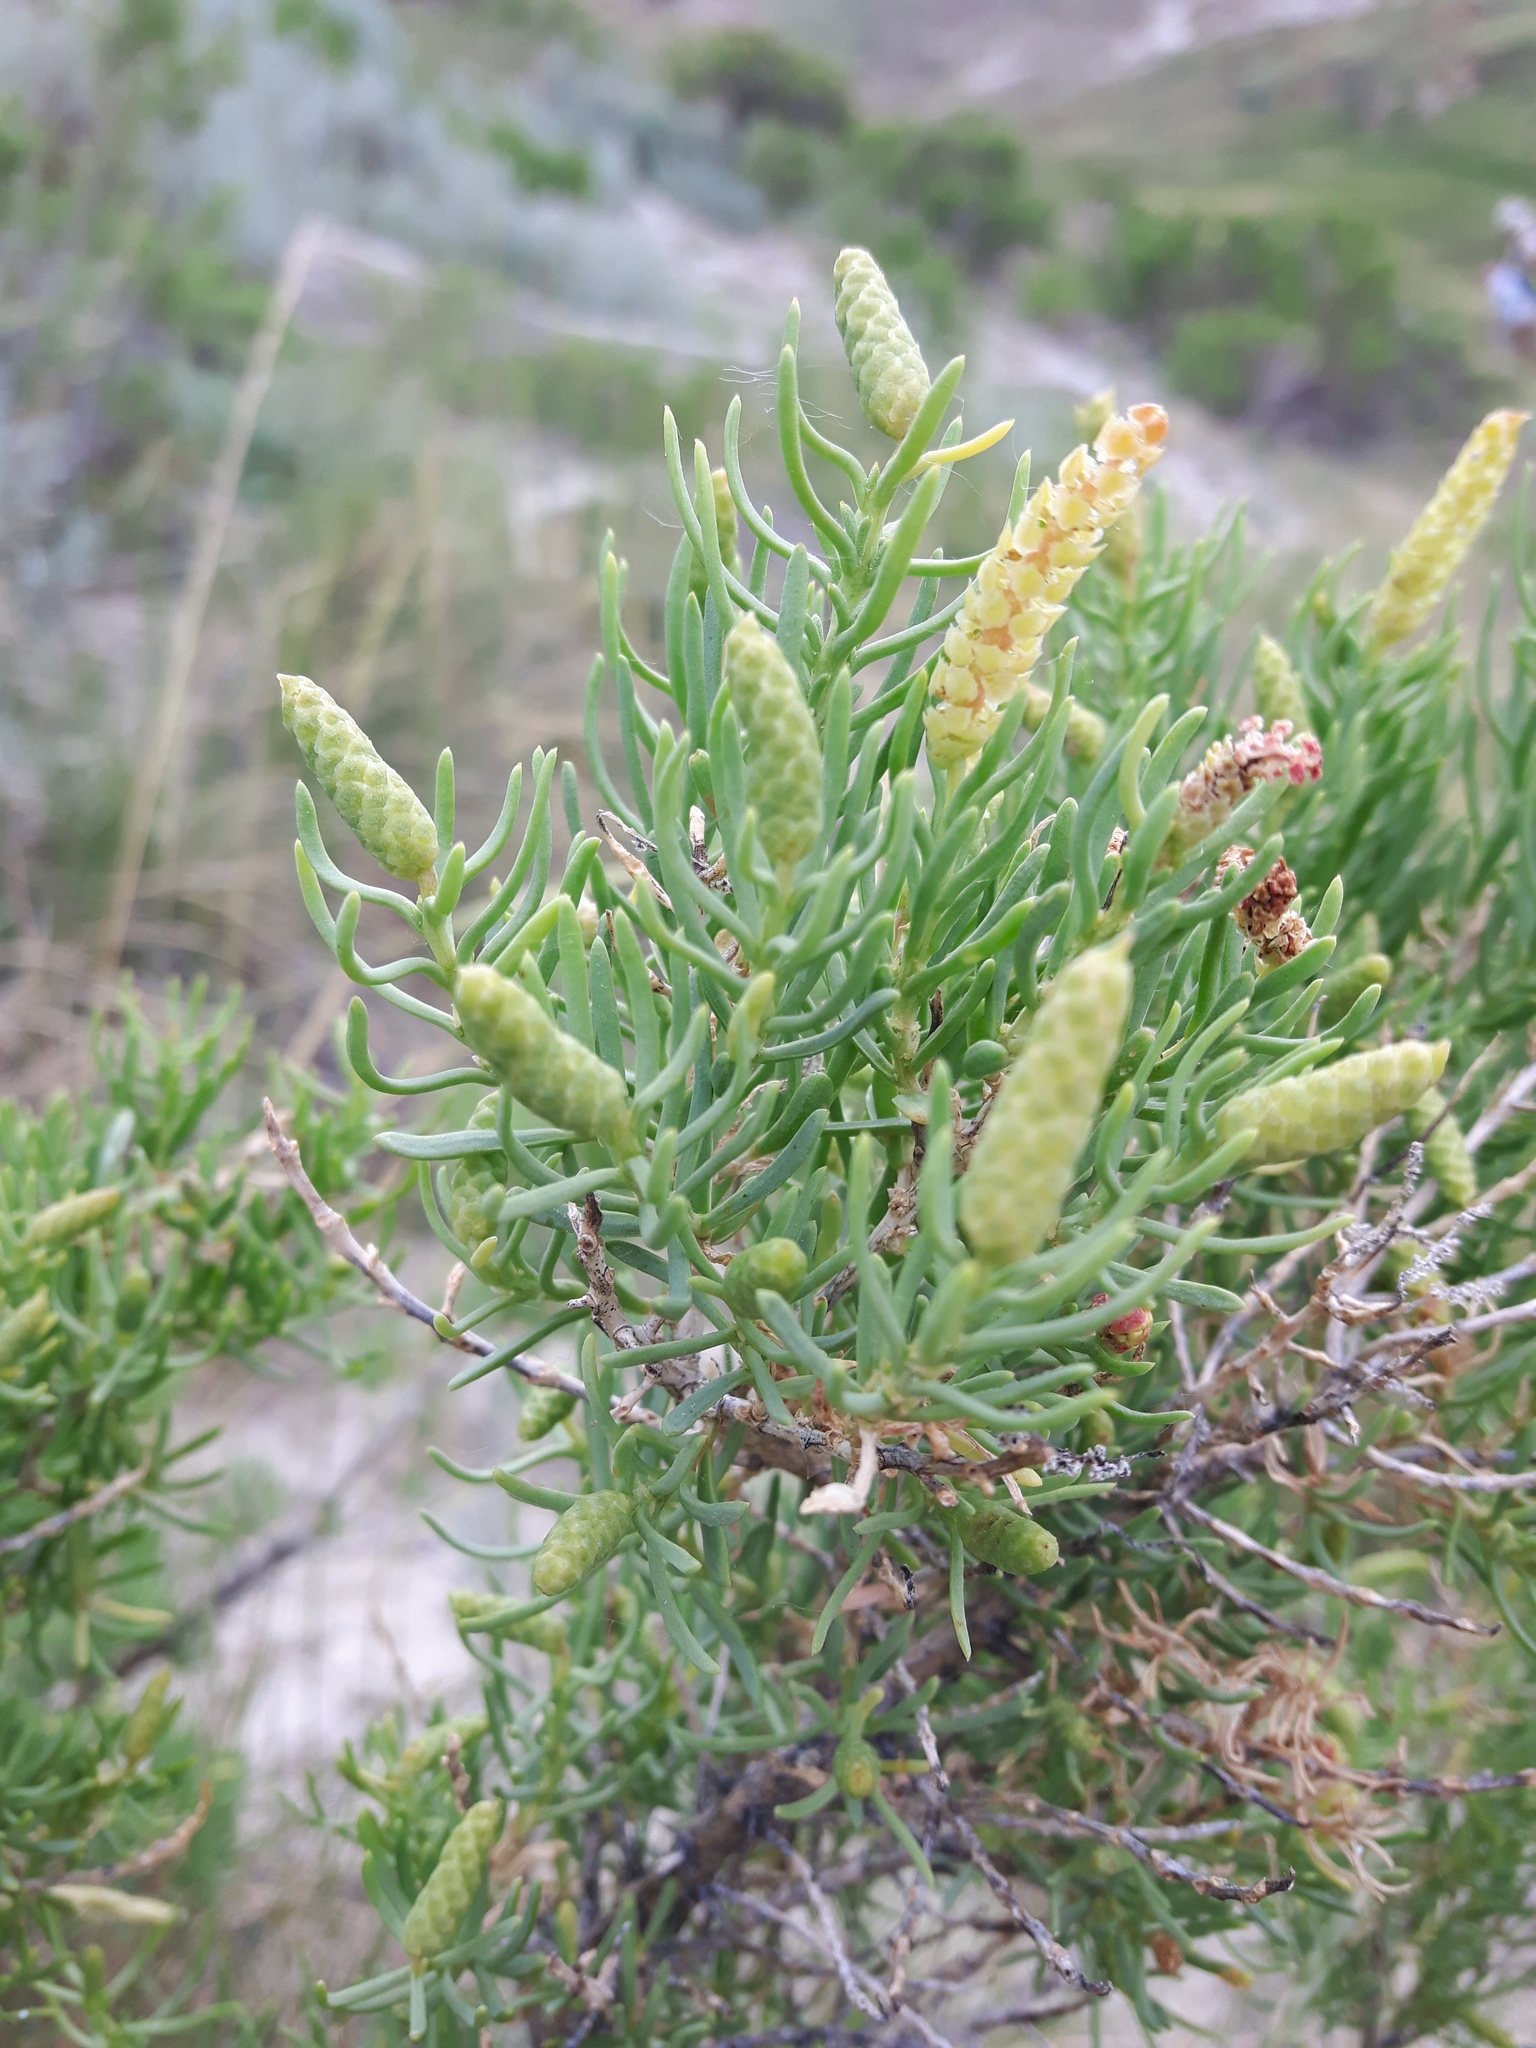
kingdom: Plantae
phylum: Tracheophyta
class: Magnoliopsida
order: Caryophyllales
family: Sarcobataceae
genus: Sarcobatus
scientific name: Sarcobatus vermiculatus
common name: Greasewood
